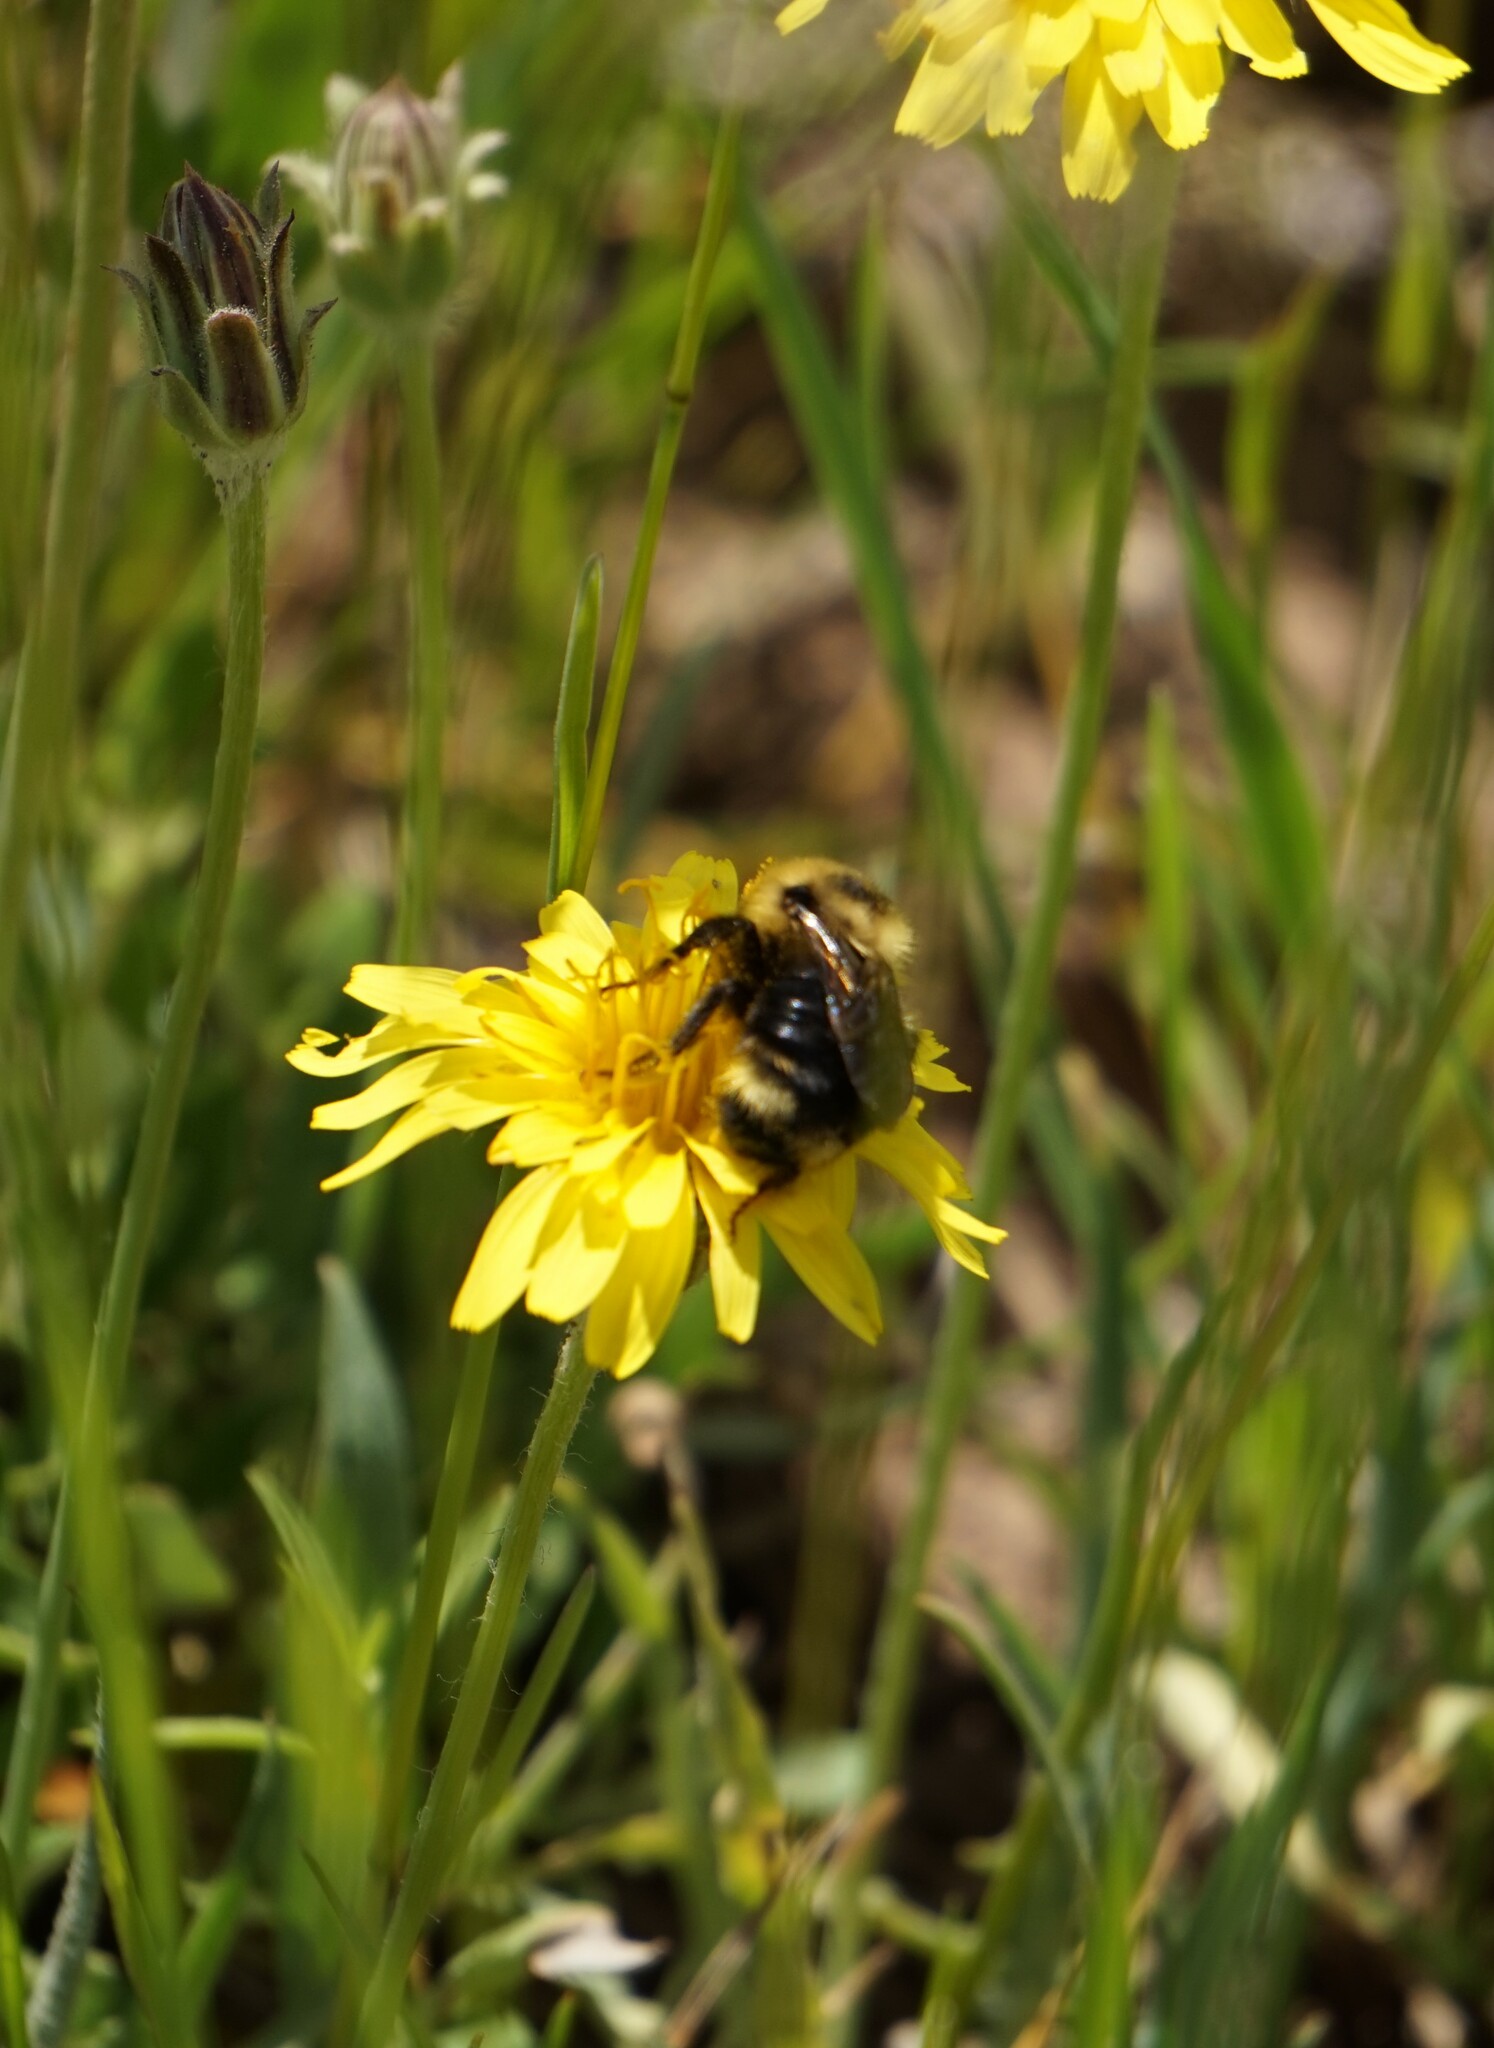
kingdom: Animalia
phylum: Arthropoda
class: Insecta
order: Hymenoptera
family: Apidae
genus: Bombus
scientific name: Bombus flavidus
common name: Fernald cuckoo bumble bee
